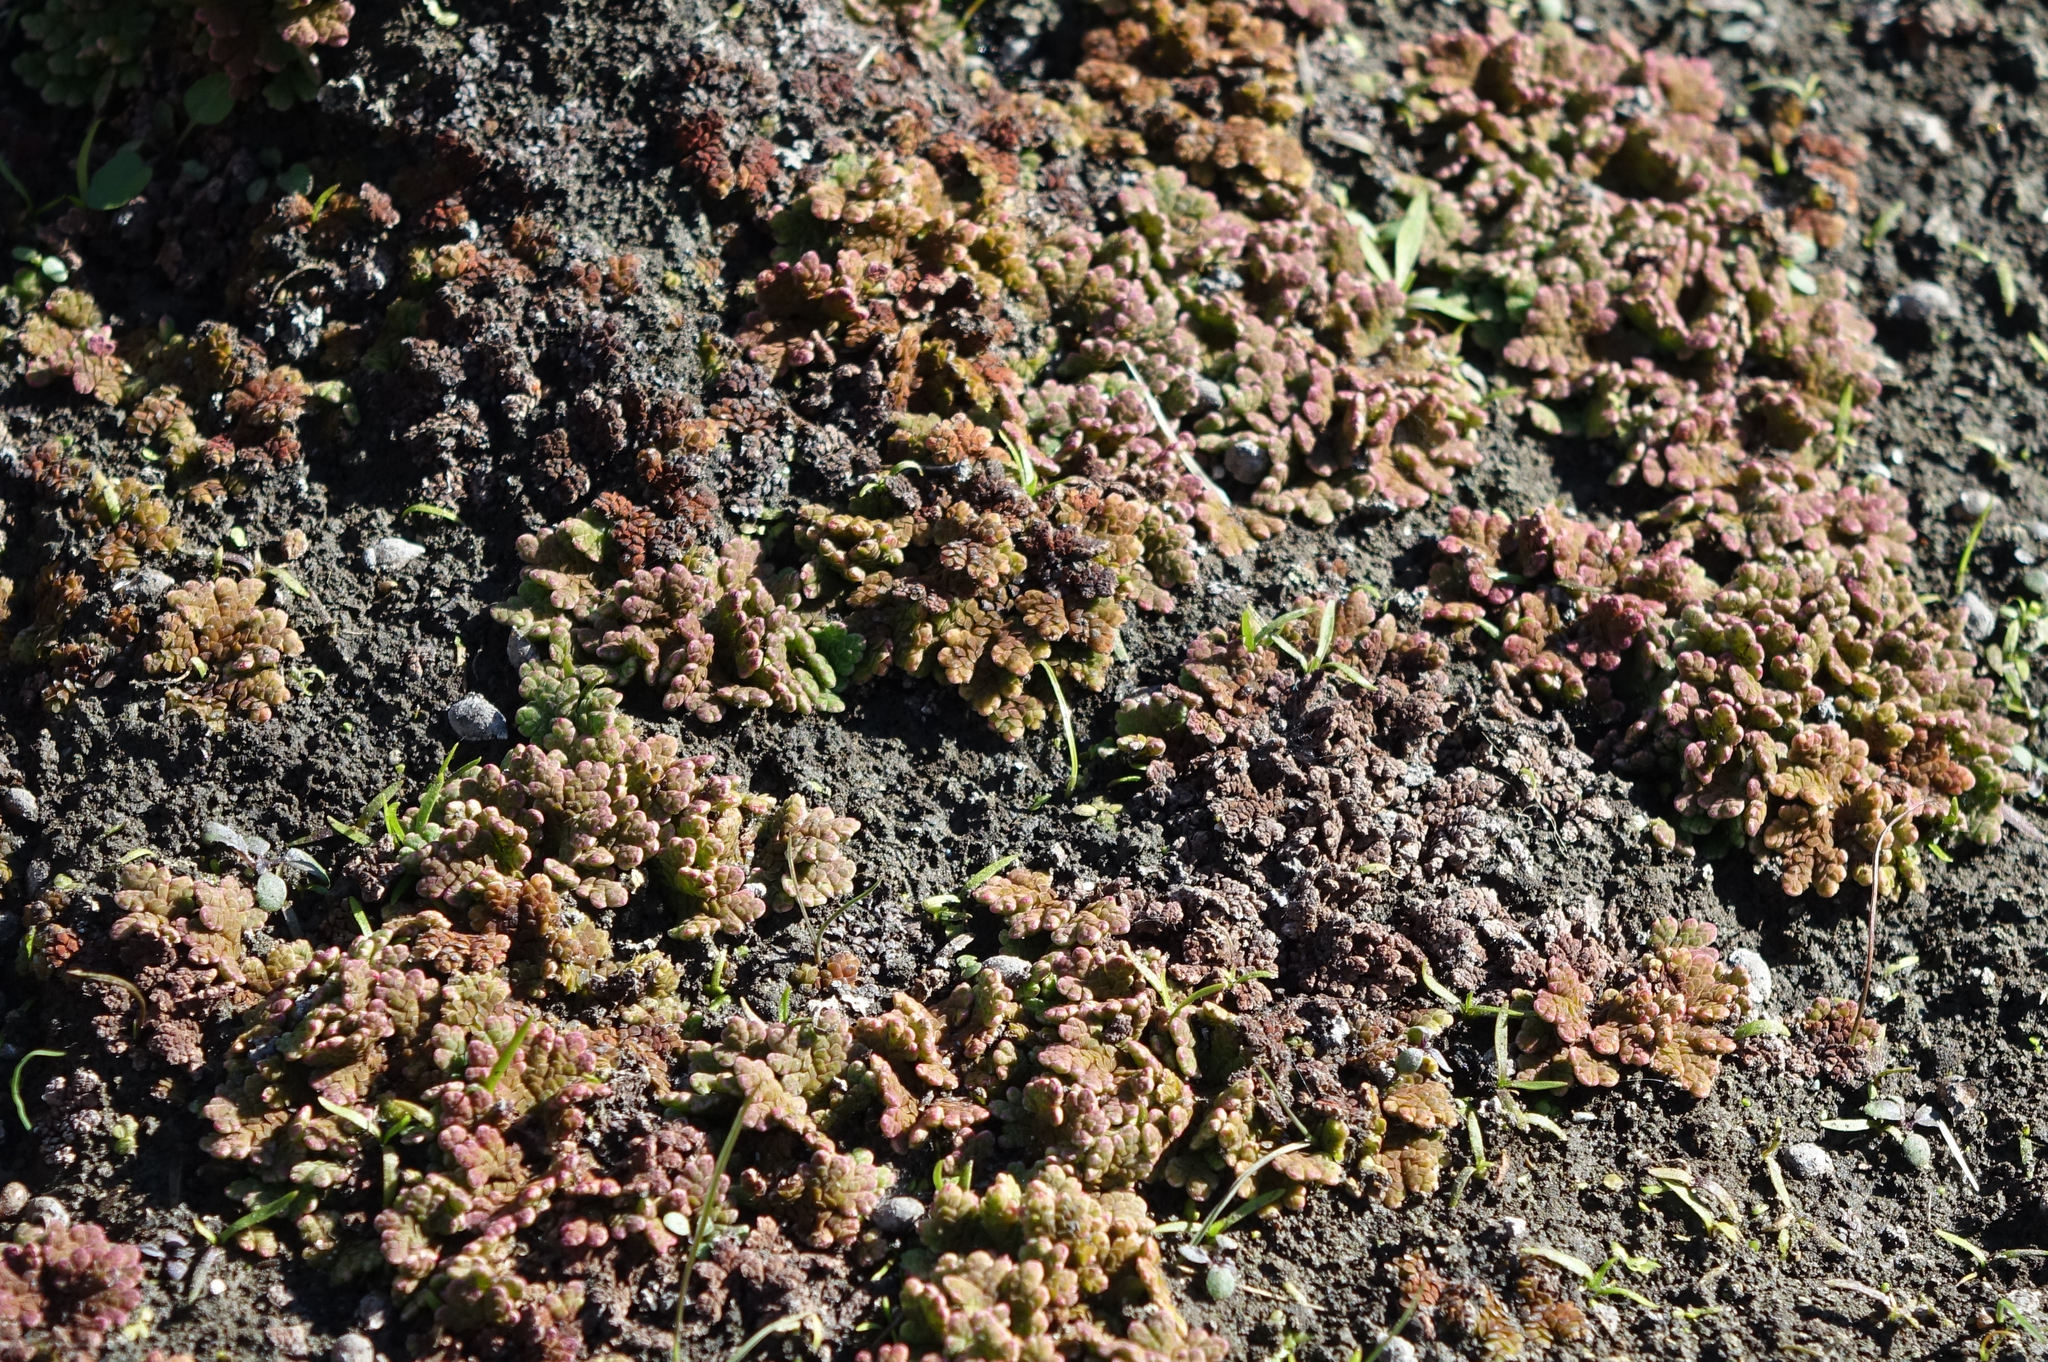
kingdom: Plantae
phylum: Tracheophyta
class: Polypodiopsida
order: Salviniales
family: Salviniaceae
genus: Azolla
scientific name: Azolla rubra
